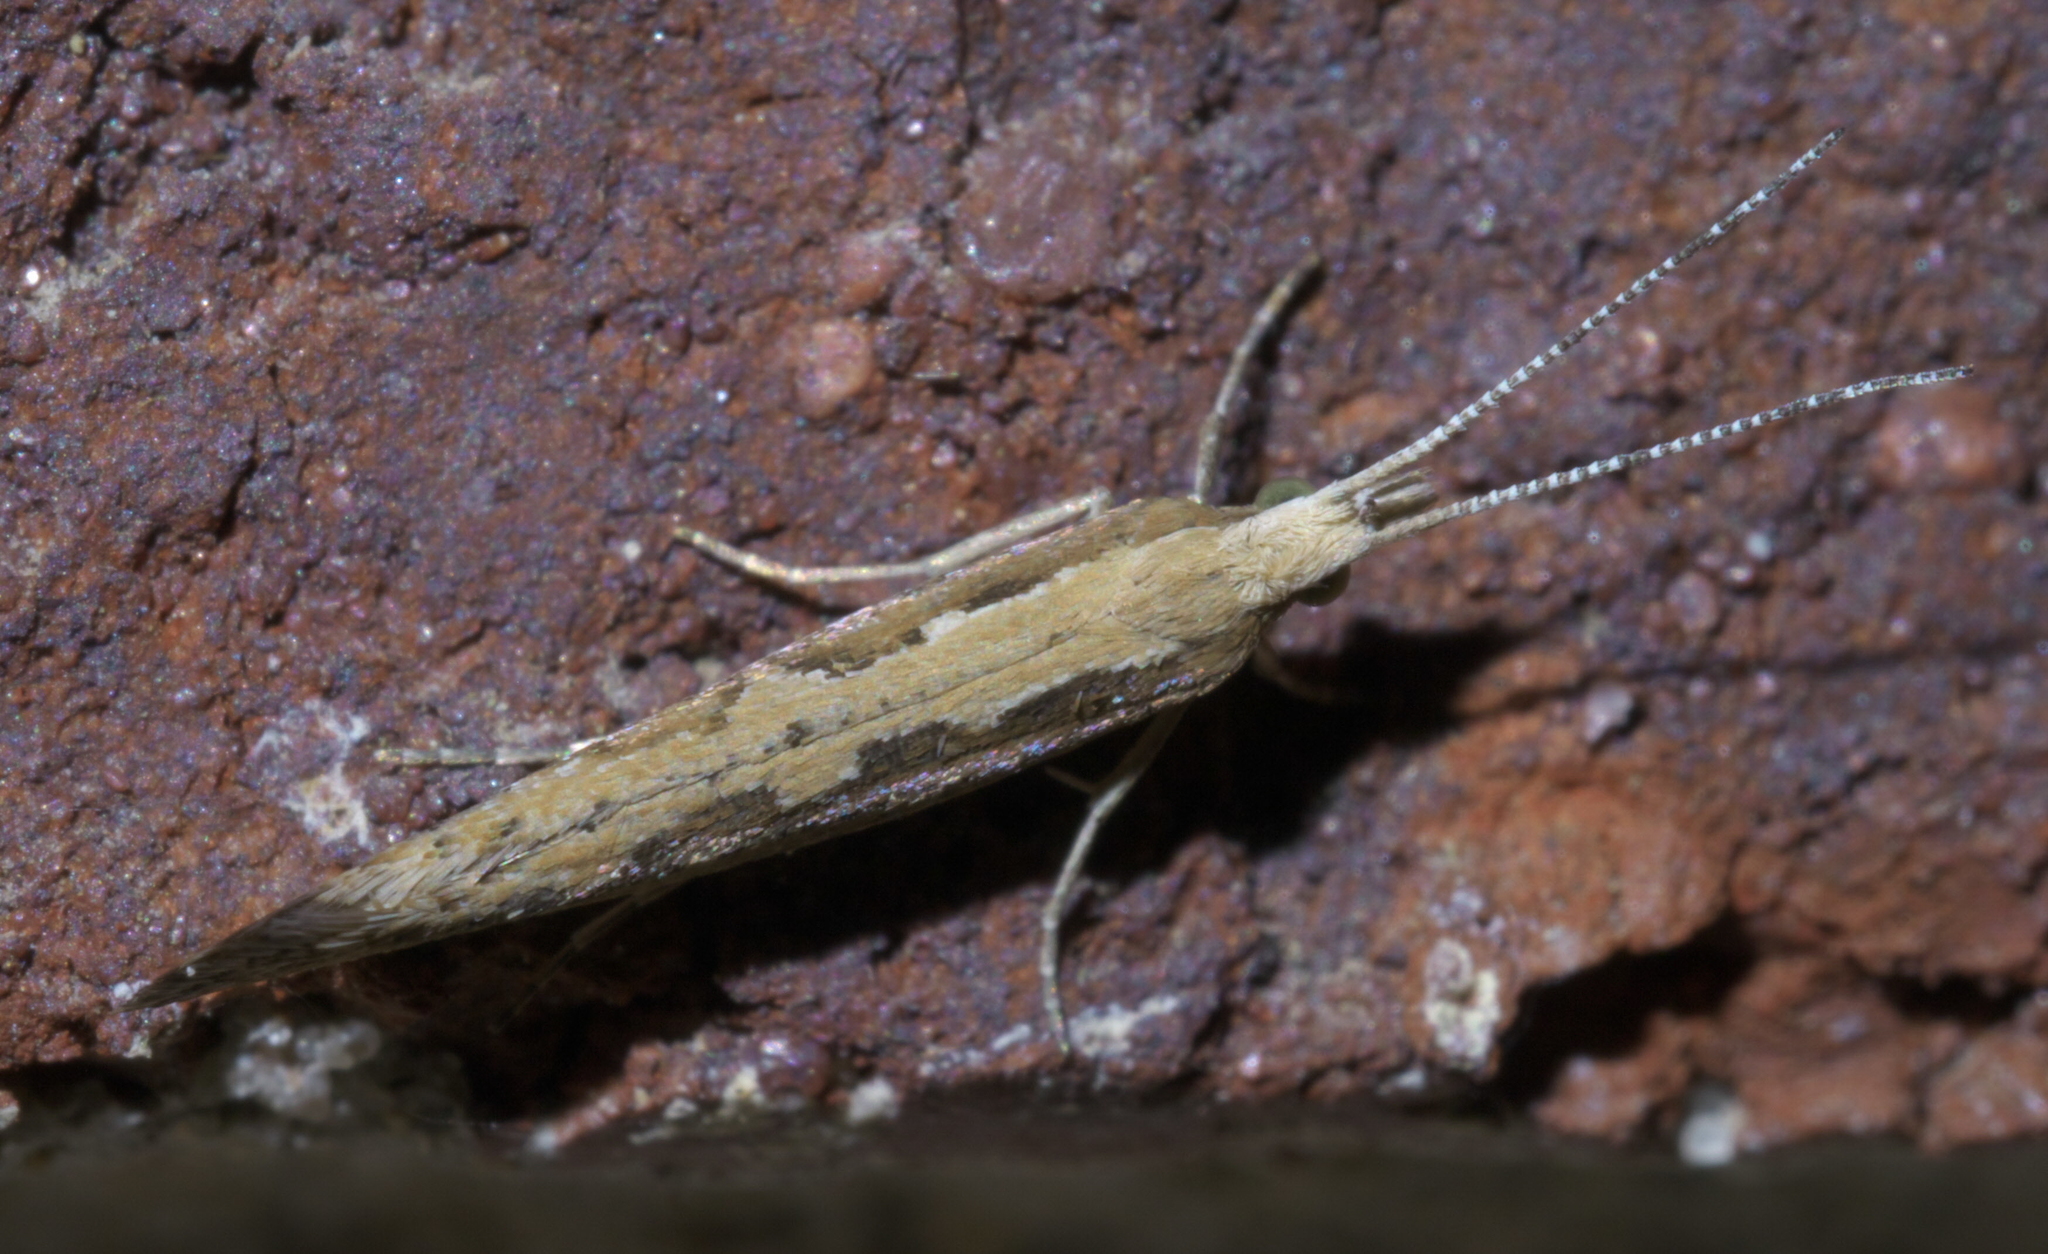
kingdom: Animalia
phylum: Arthropoda
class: Insecta
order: Lepidoptera
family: Plutellidae
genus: Plutella
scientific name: Plutella xylostella
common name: Diamond-back moth
